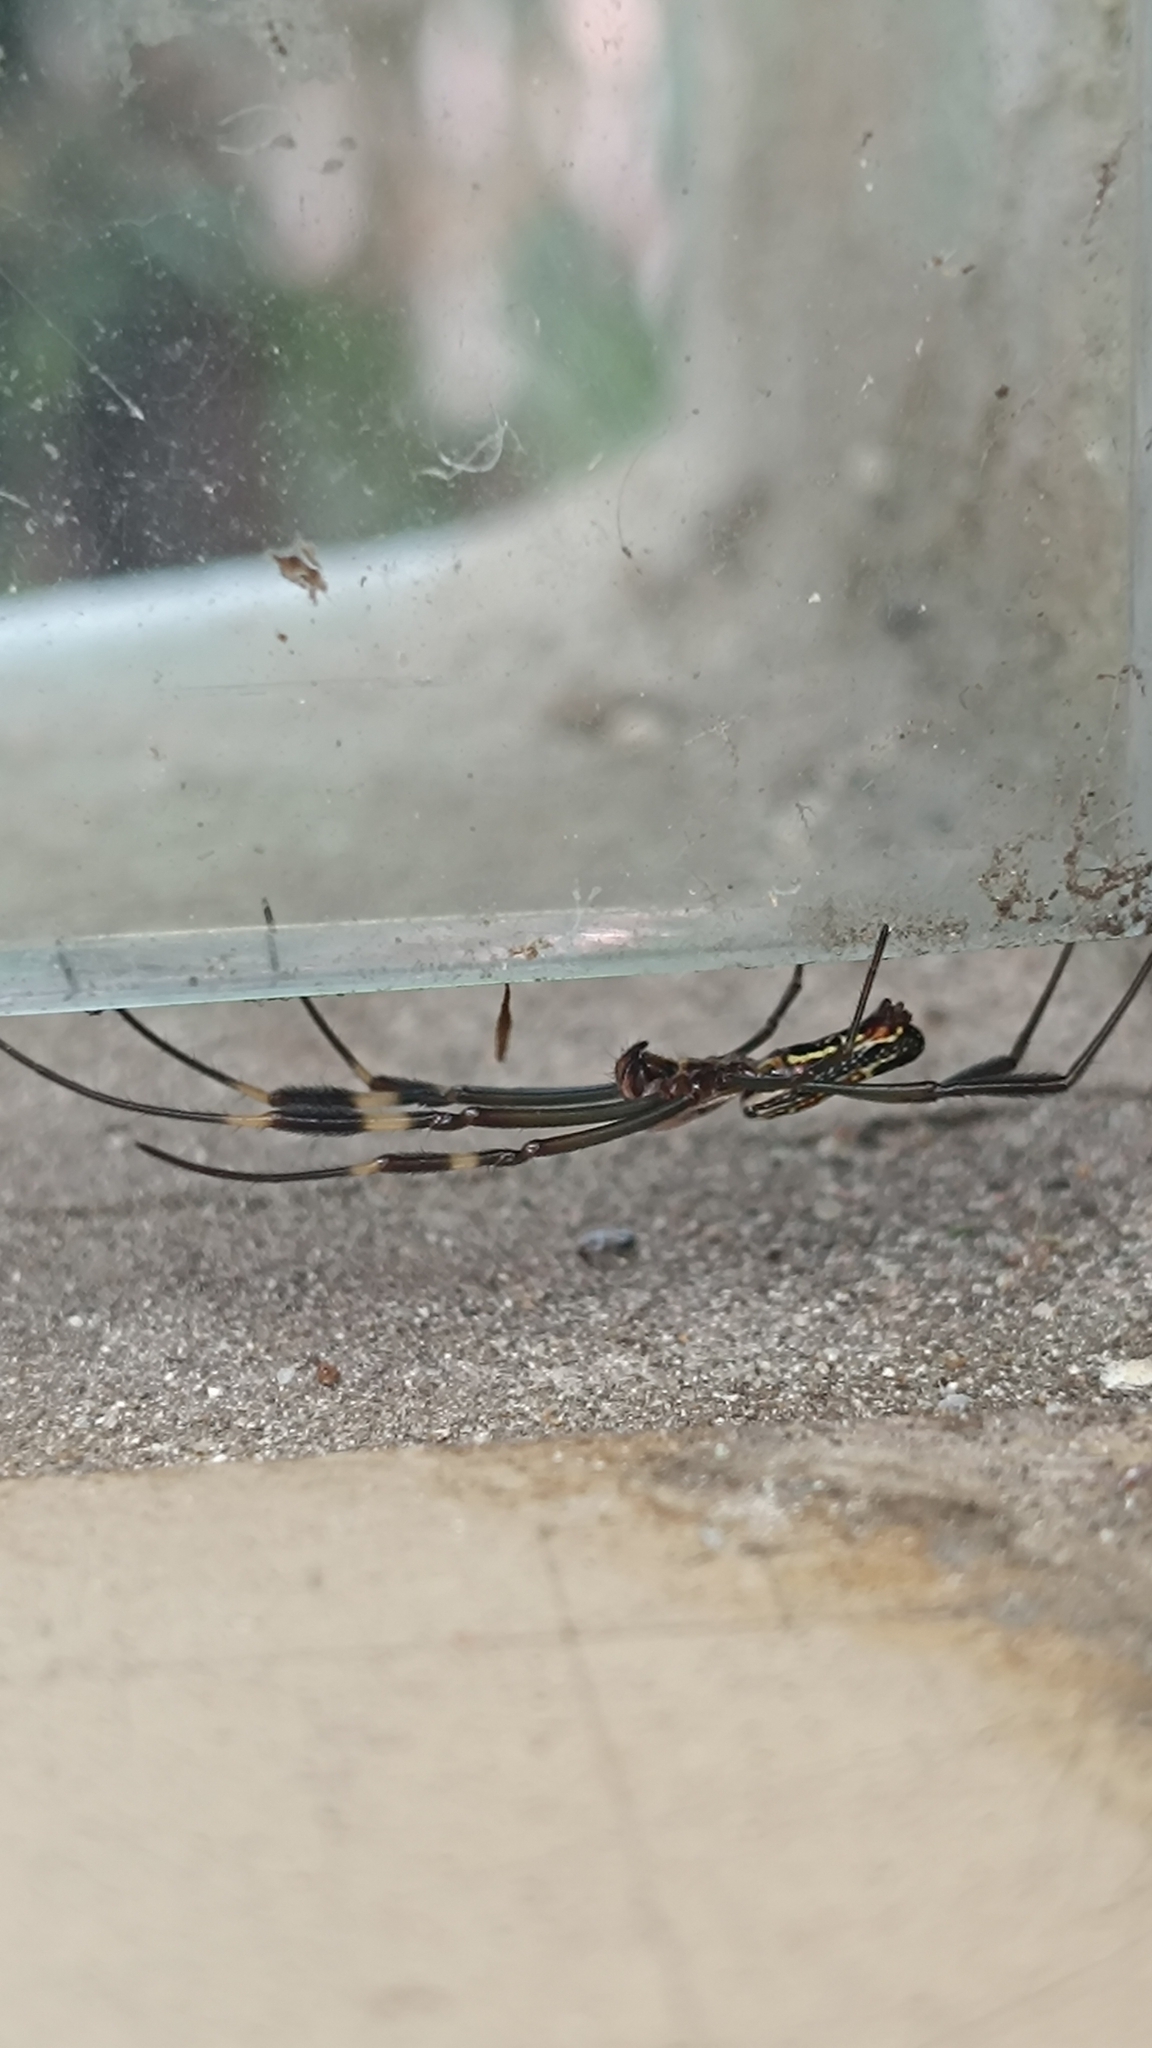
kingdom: Animalia
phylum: Arthropoda
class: Arachnida
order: Araneae
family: Araneidae
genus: Trichonephila
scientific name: Trichonephila clavipes
